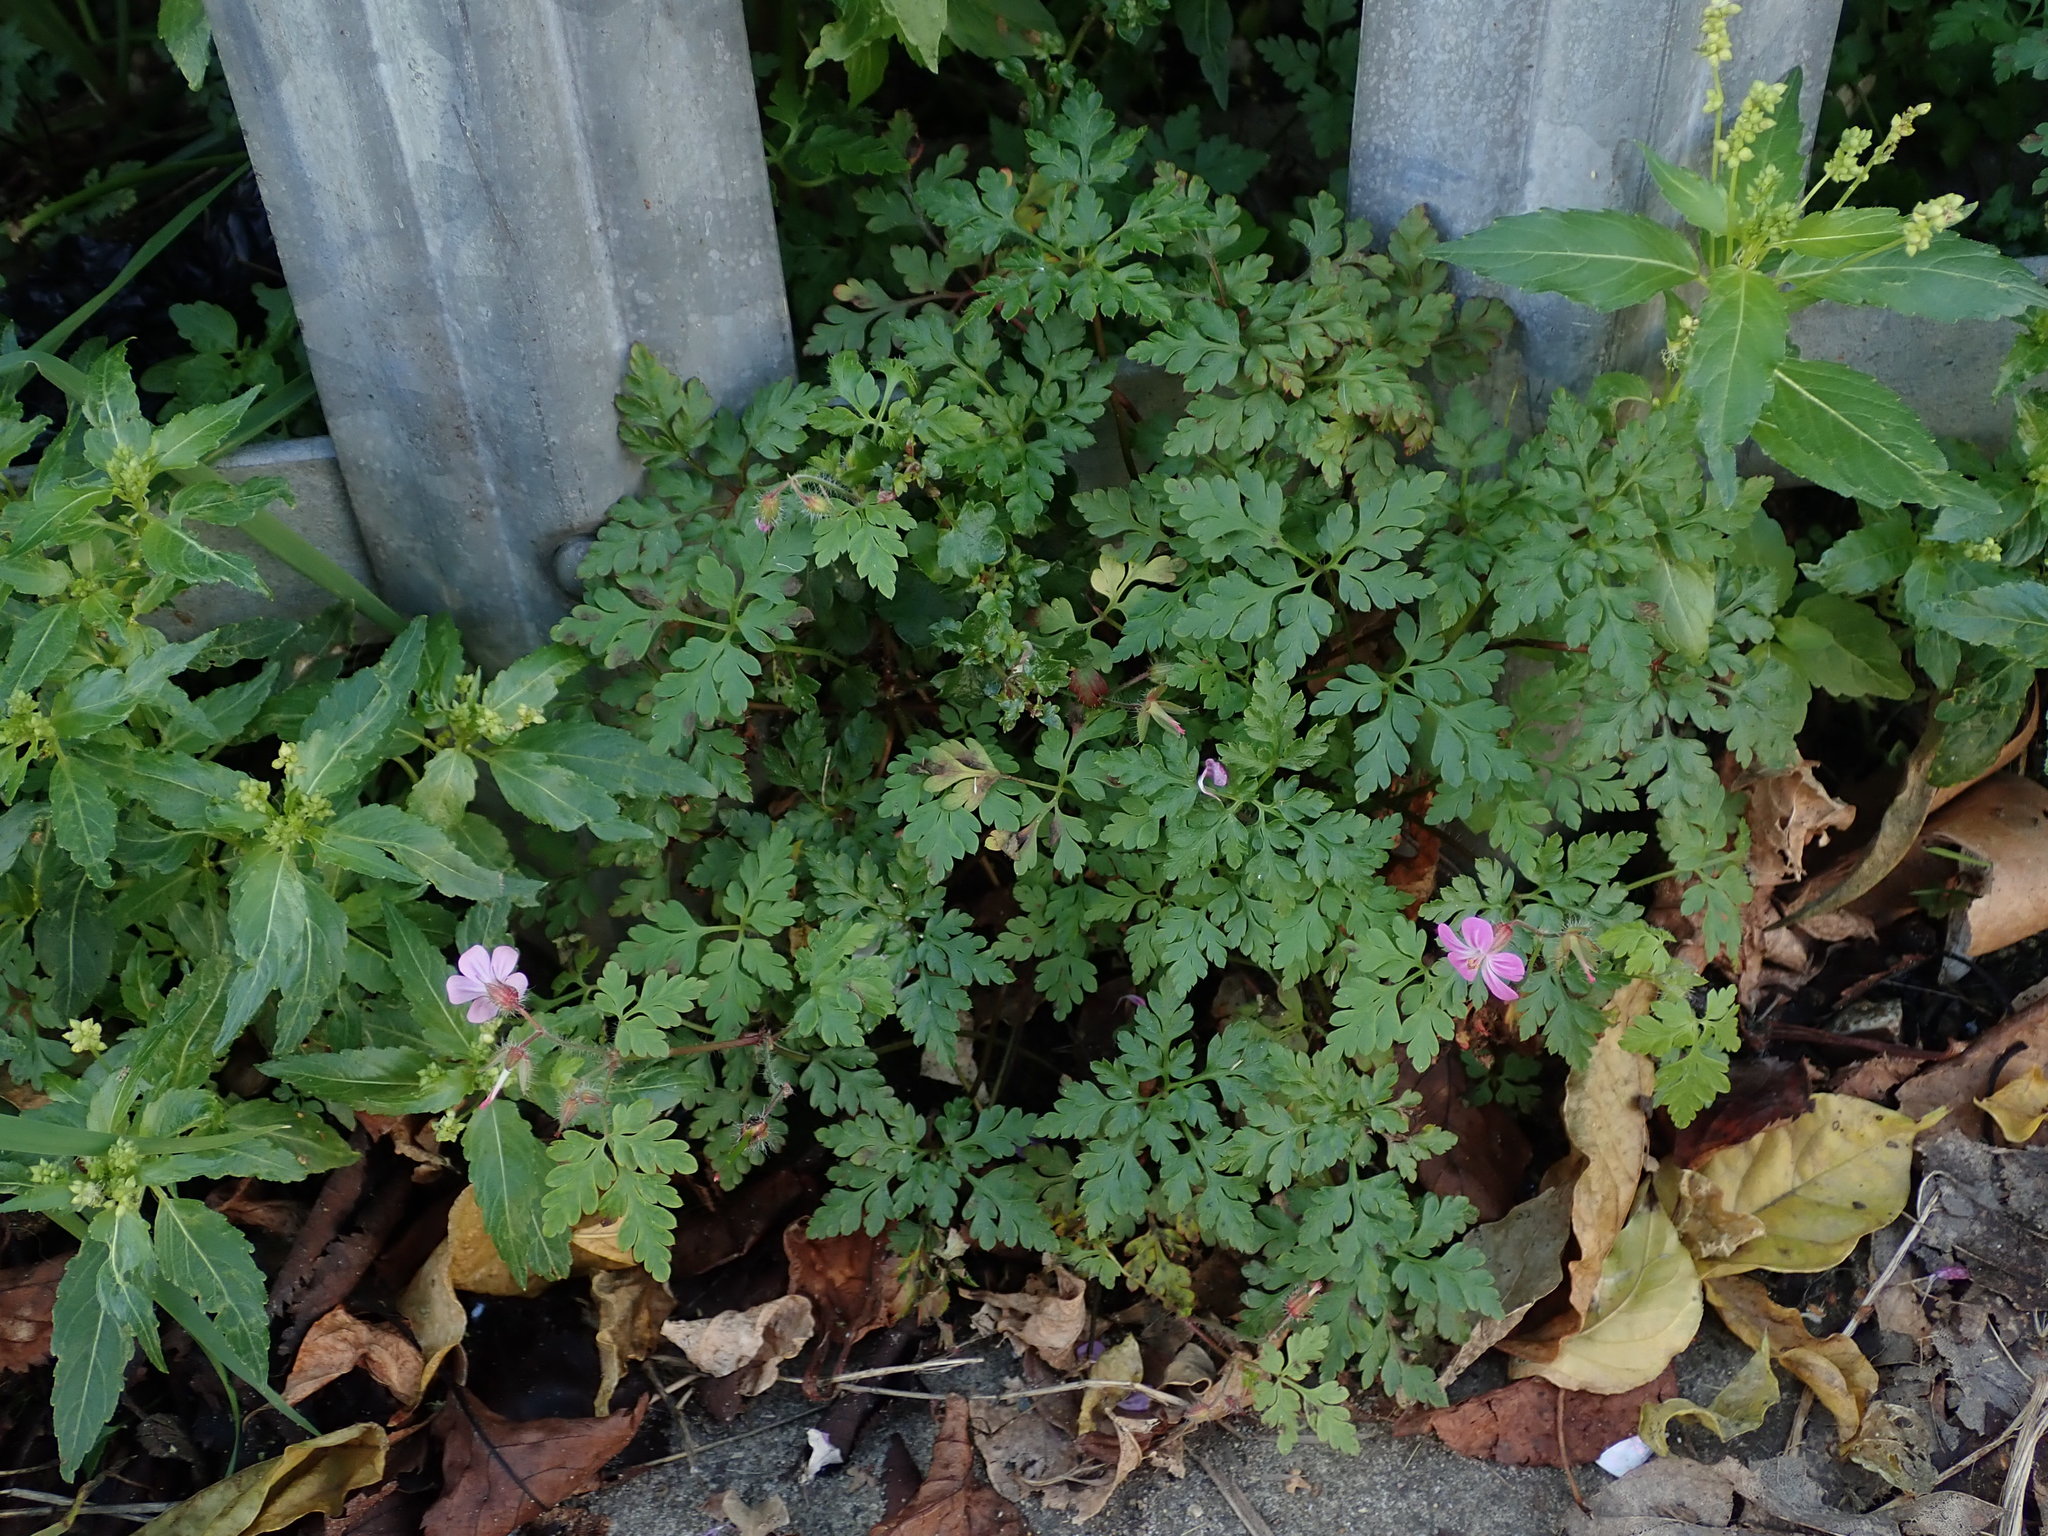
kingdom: Plantae
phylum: Tracheophyta
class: Magnoliopsida
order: Geraniales
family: Geraniaceae
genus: Geranium
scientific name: Geranium robertianum
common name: Herb-robert
